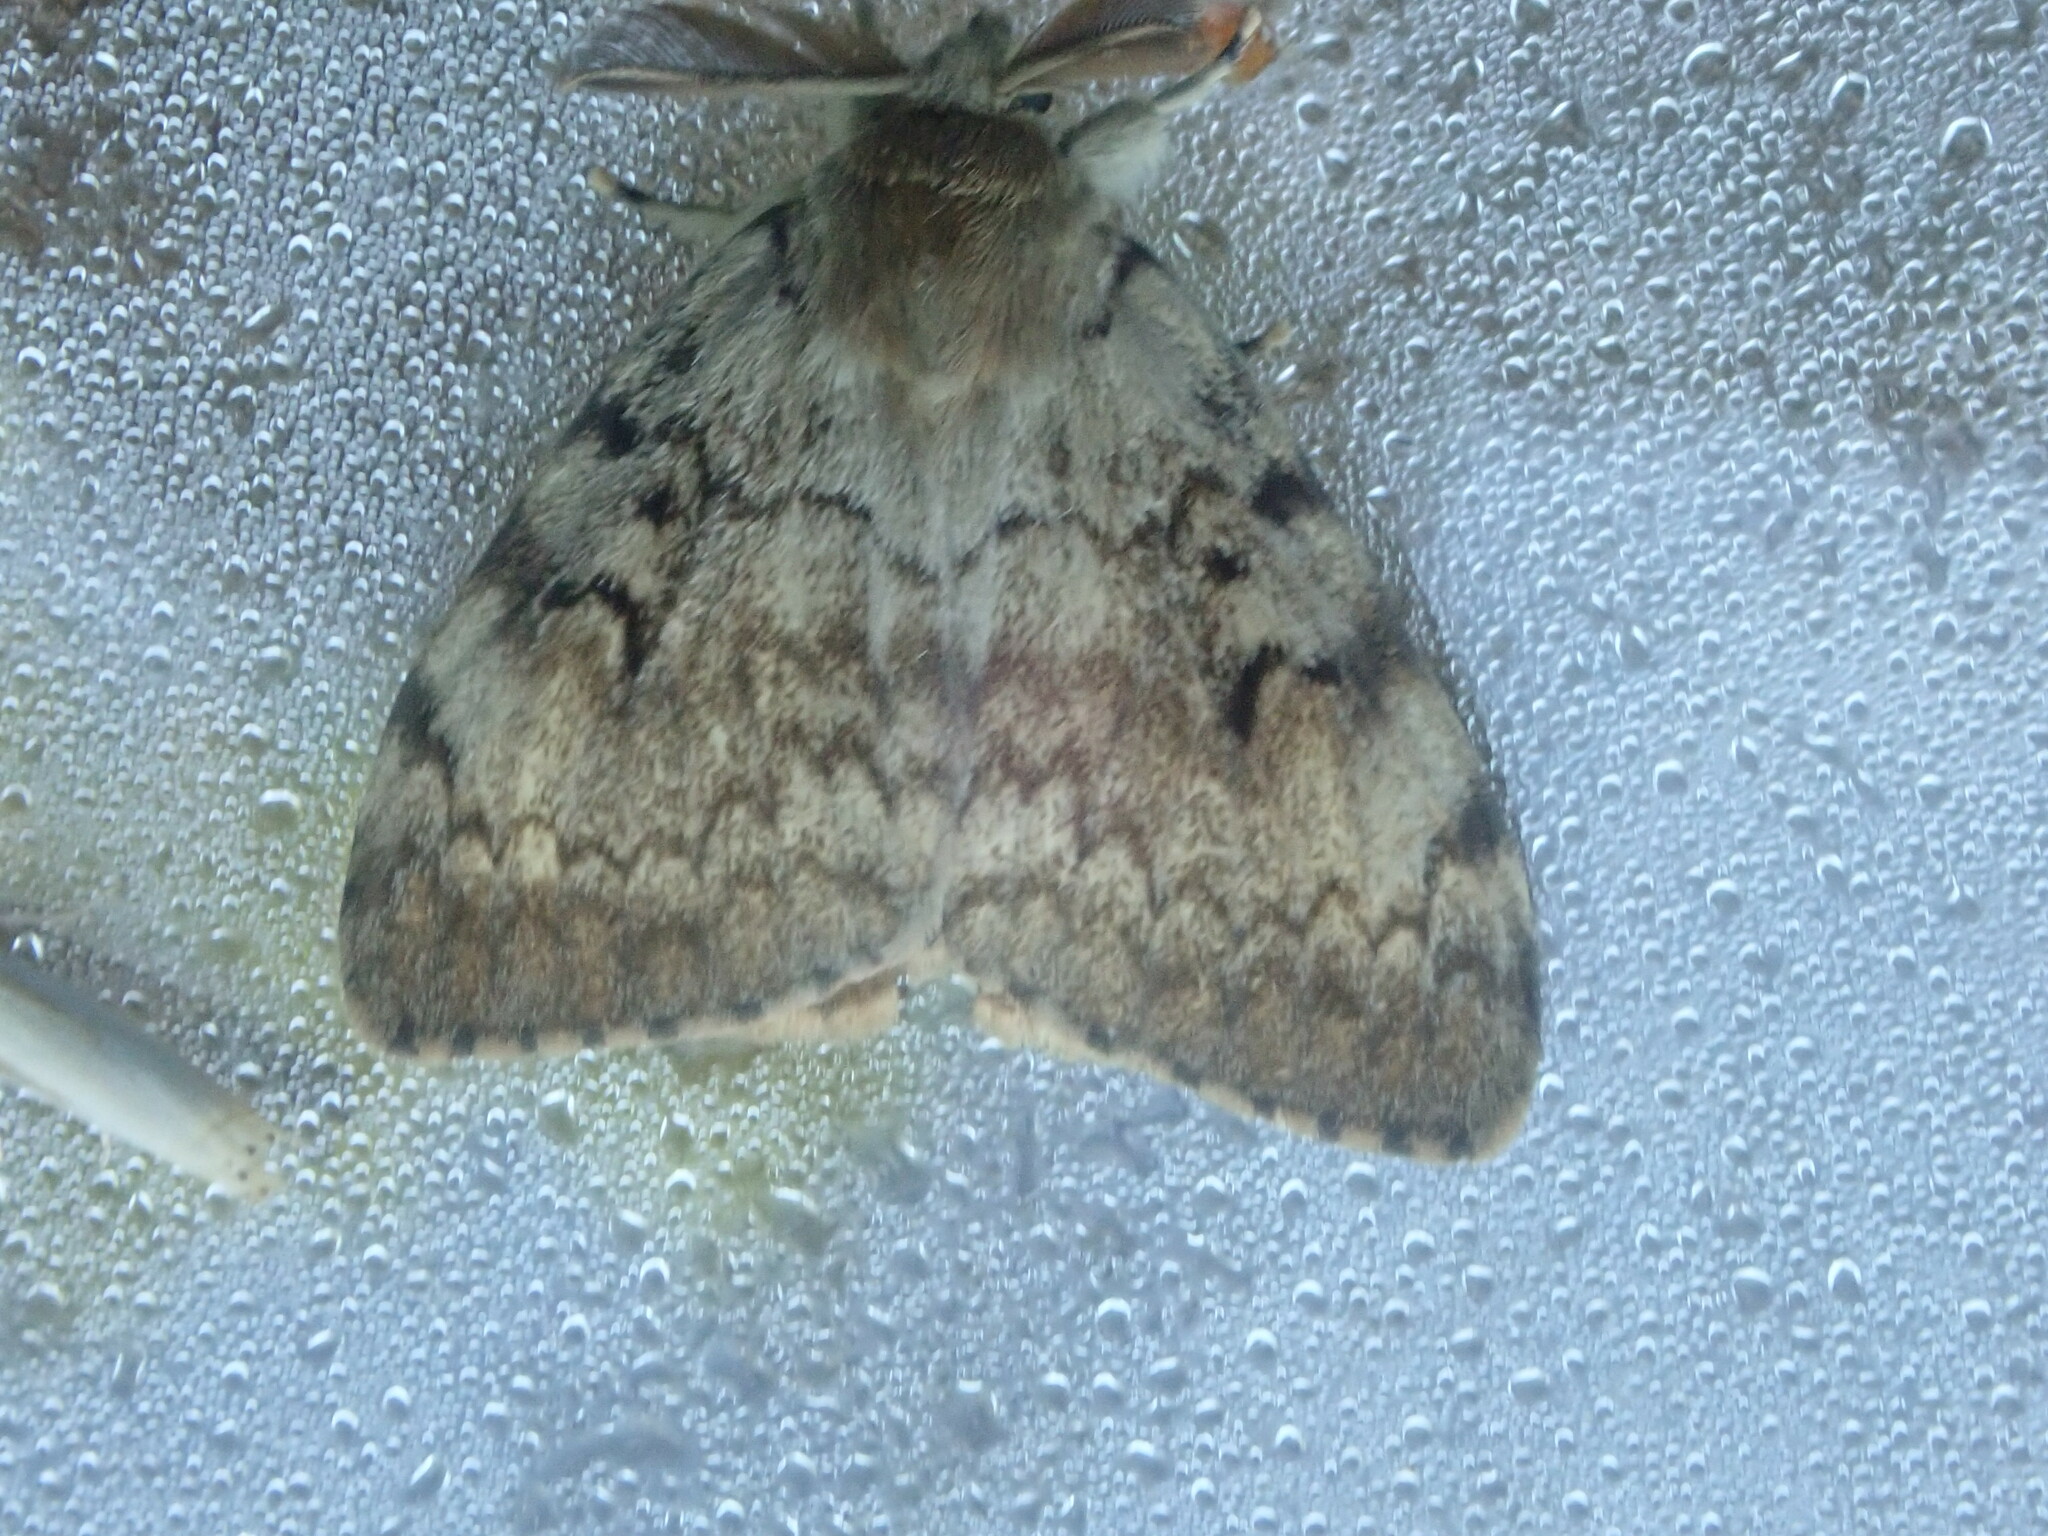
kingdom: Animalia
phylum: Arthropoda
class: Insecta
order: Lepidoptera
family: Erebidae
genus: Lymantria
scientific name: Lymantria dispar
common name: Gypsy moth
